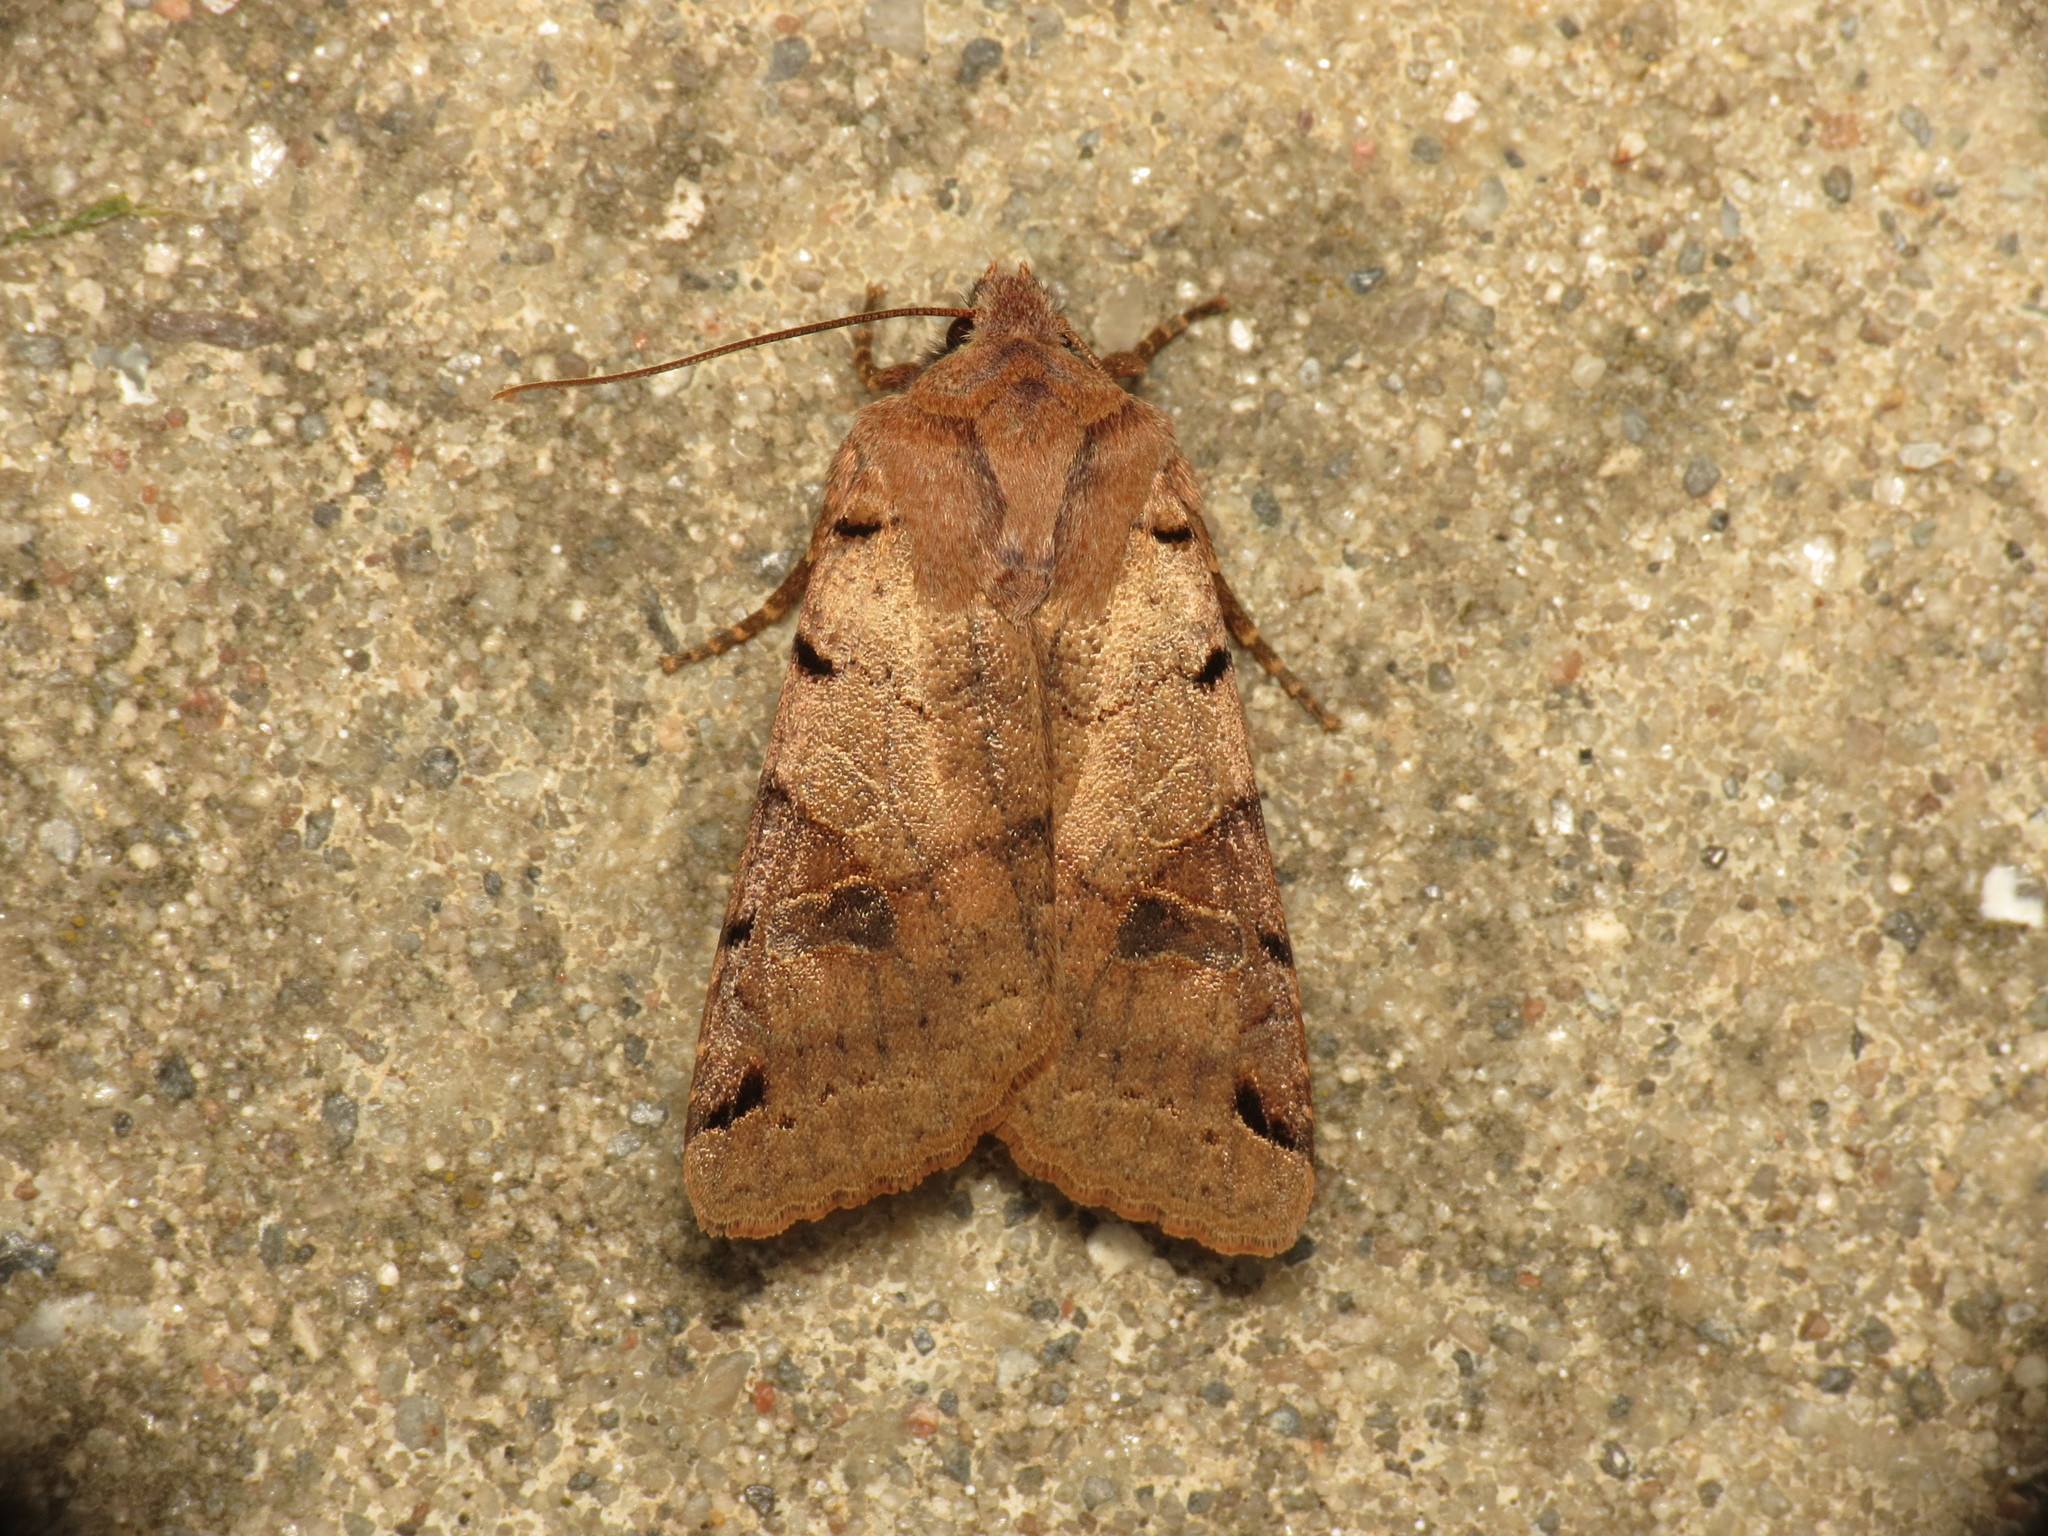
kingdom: Animalia
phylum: Arthropoda
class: Insecta
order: Lepidoptera
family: Noctuidae
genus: Agrochola
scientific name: Agrochola litura
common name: Brown-spot pinion
